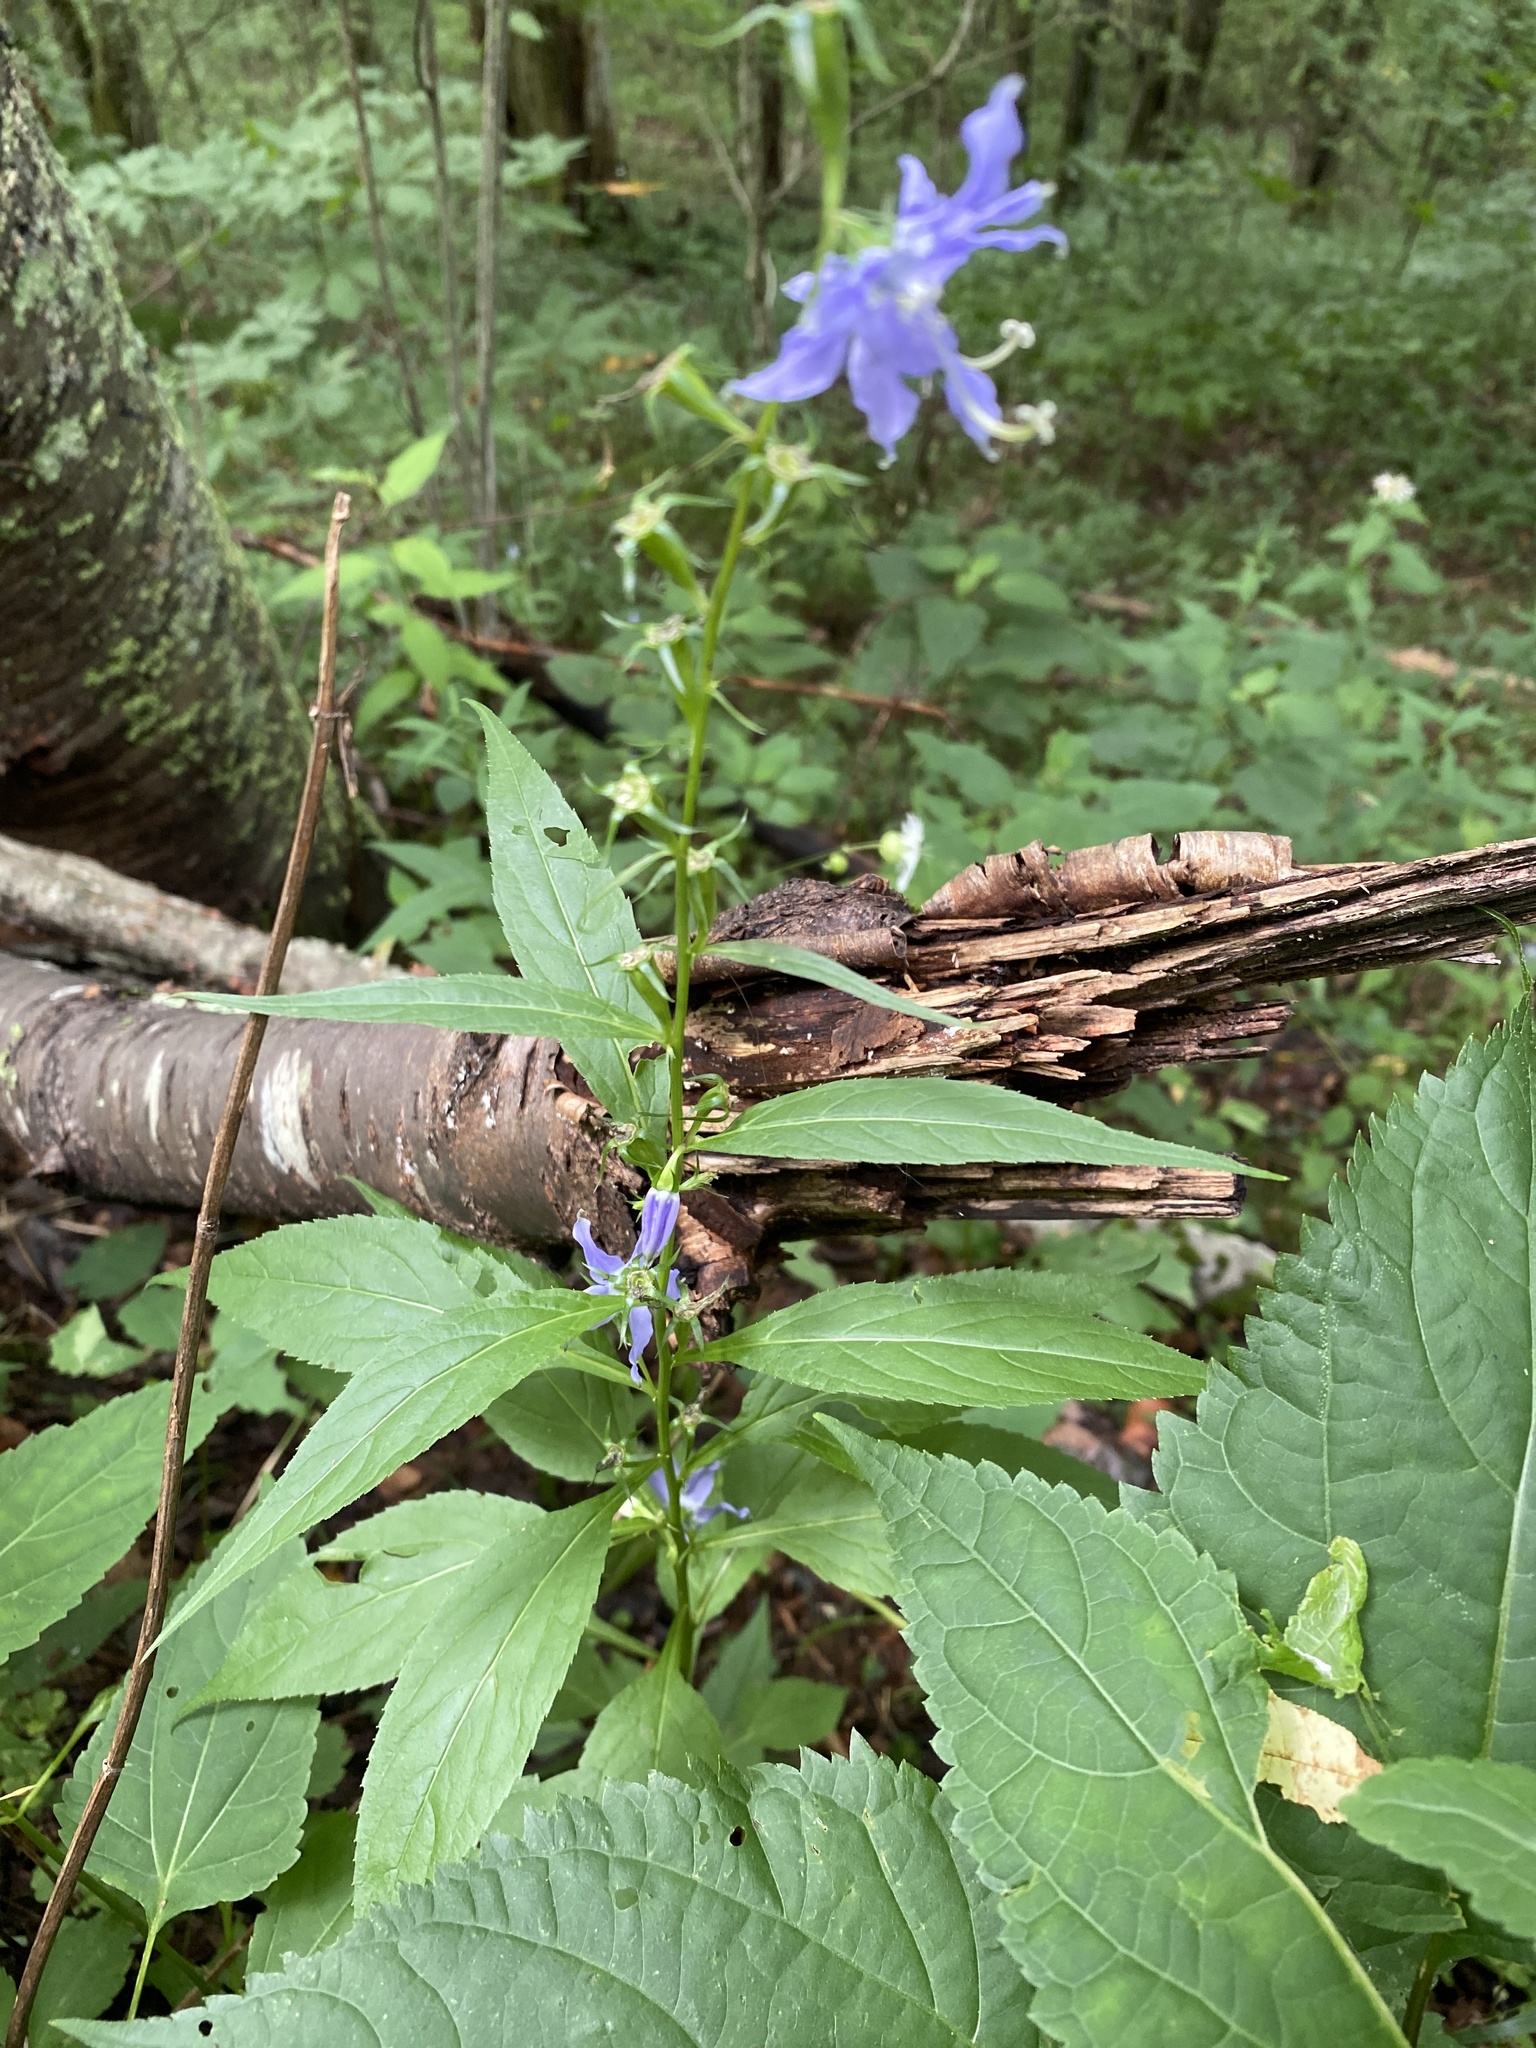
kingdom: Plantae
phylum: Tracheophyta
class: Magnoliopsida
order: Asterales
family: Campanulaceae
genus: Campanulastrum
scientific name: Campanulastrum americanum
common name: American bellflower
